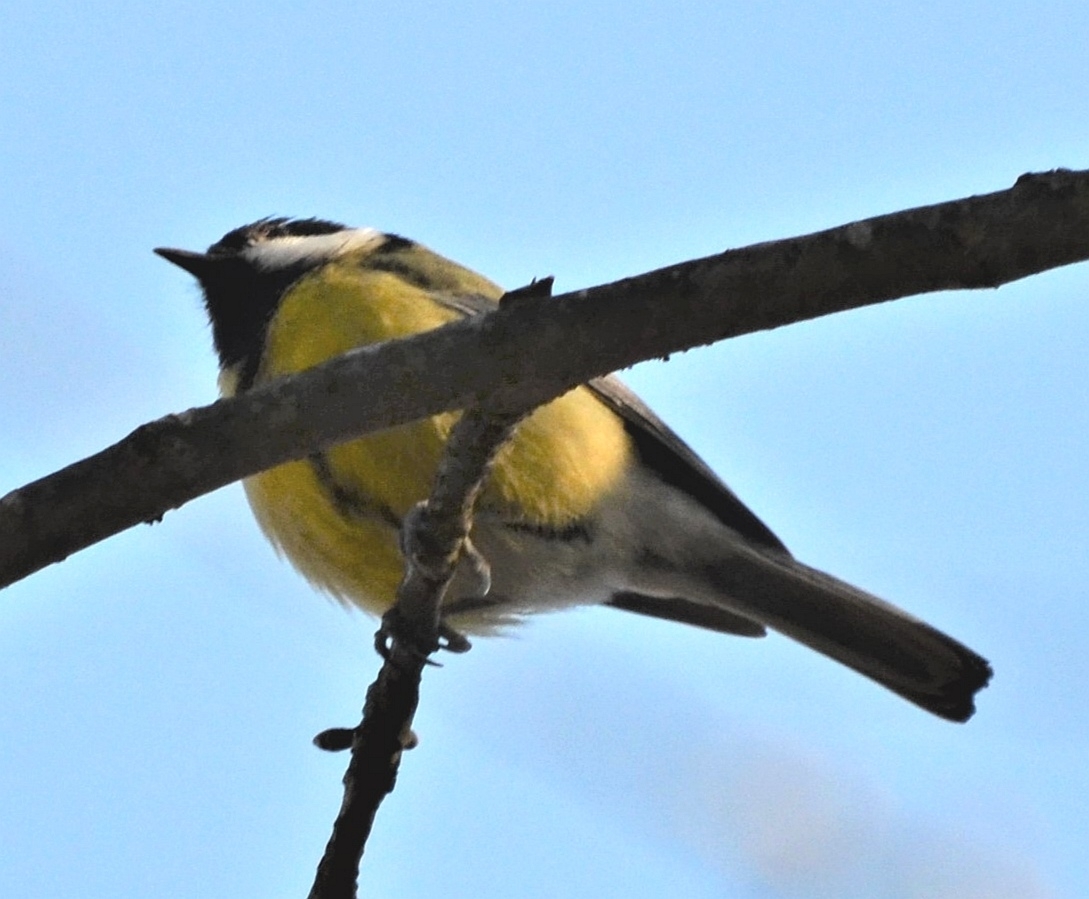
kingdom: Animalia
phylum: Chordata
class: Aves
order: Passeriformes
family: Paridae
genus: Parus
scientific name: Parus major
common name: Great tit
